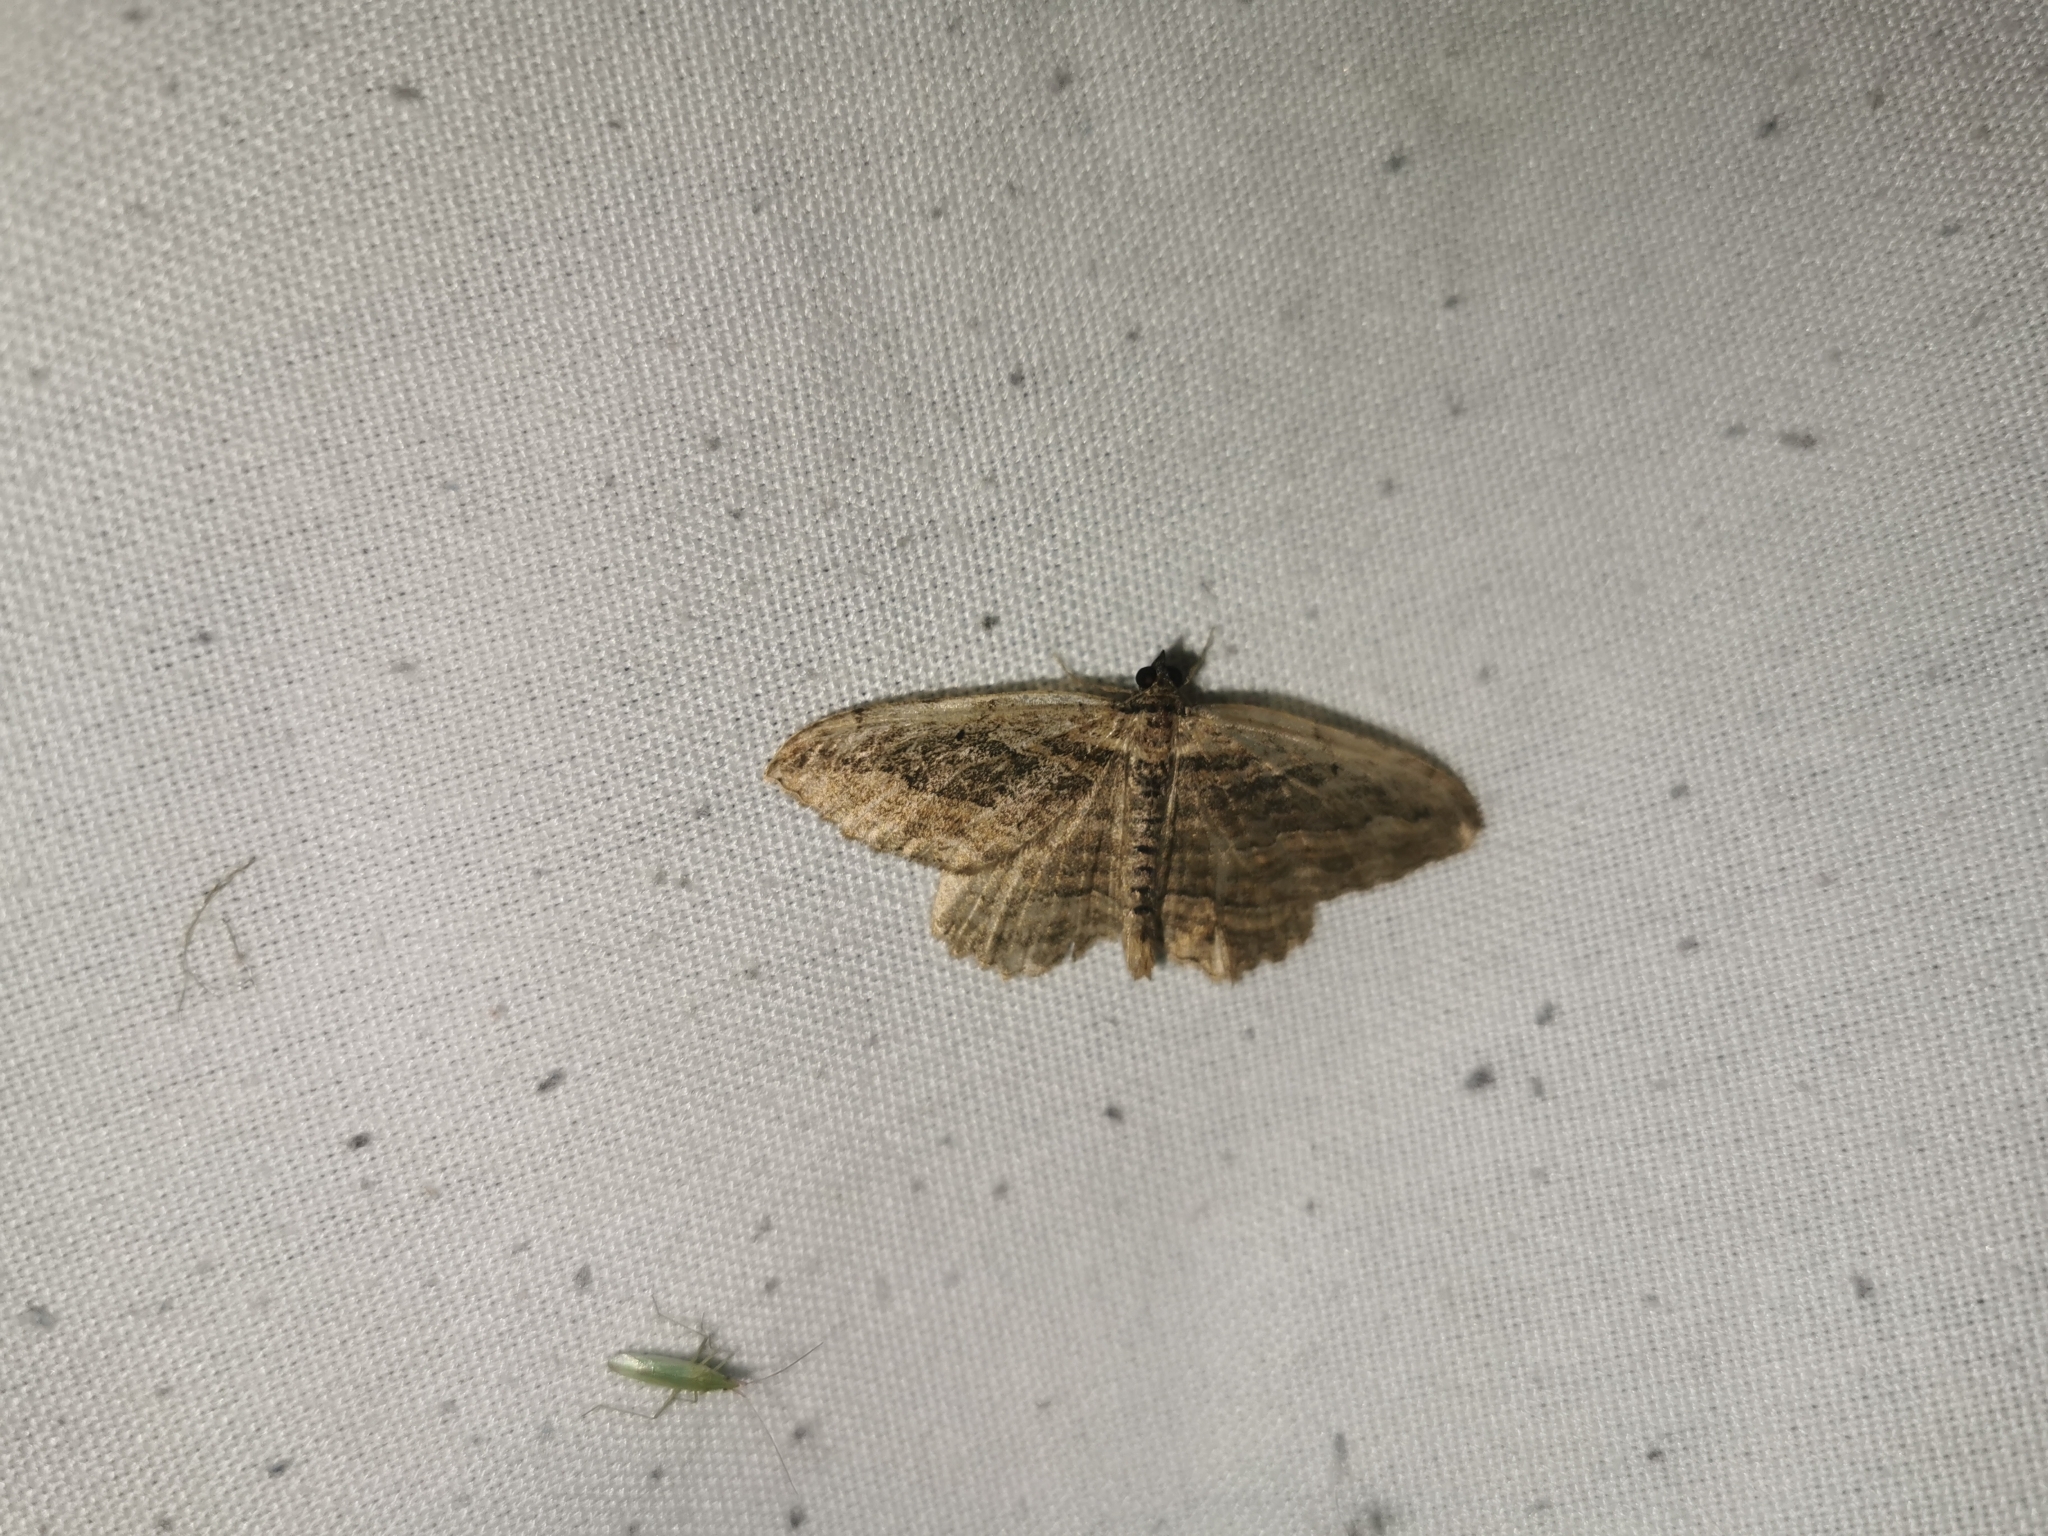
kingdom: Animalia
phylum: Arthropoda
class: Insecta
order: Lepidoptera
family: Geometridae
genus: Philereme
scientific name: Philereme transversata
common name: Dark umber
